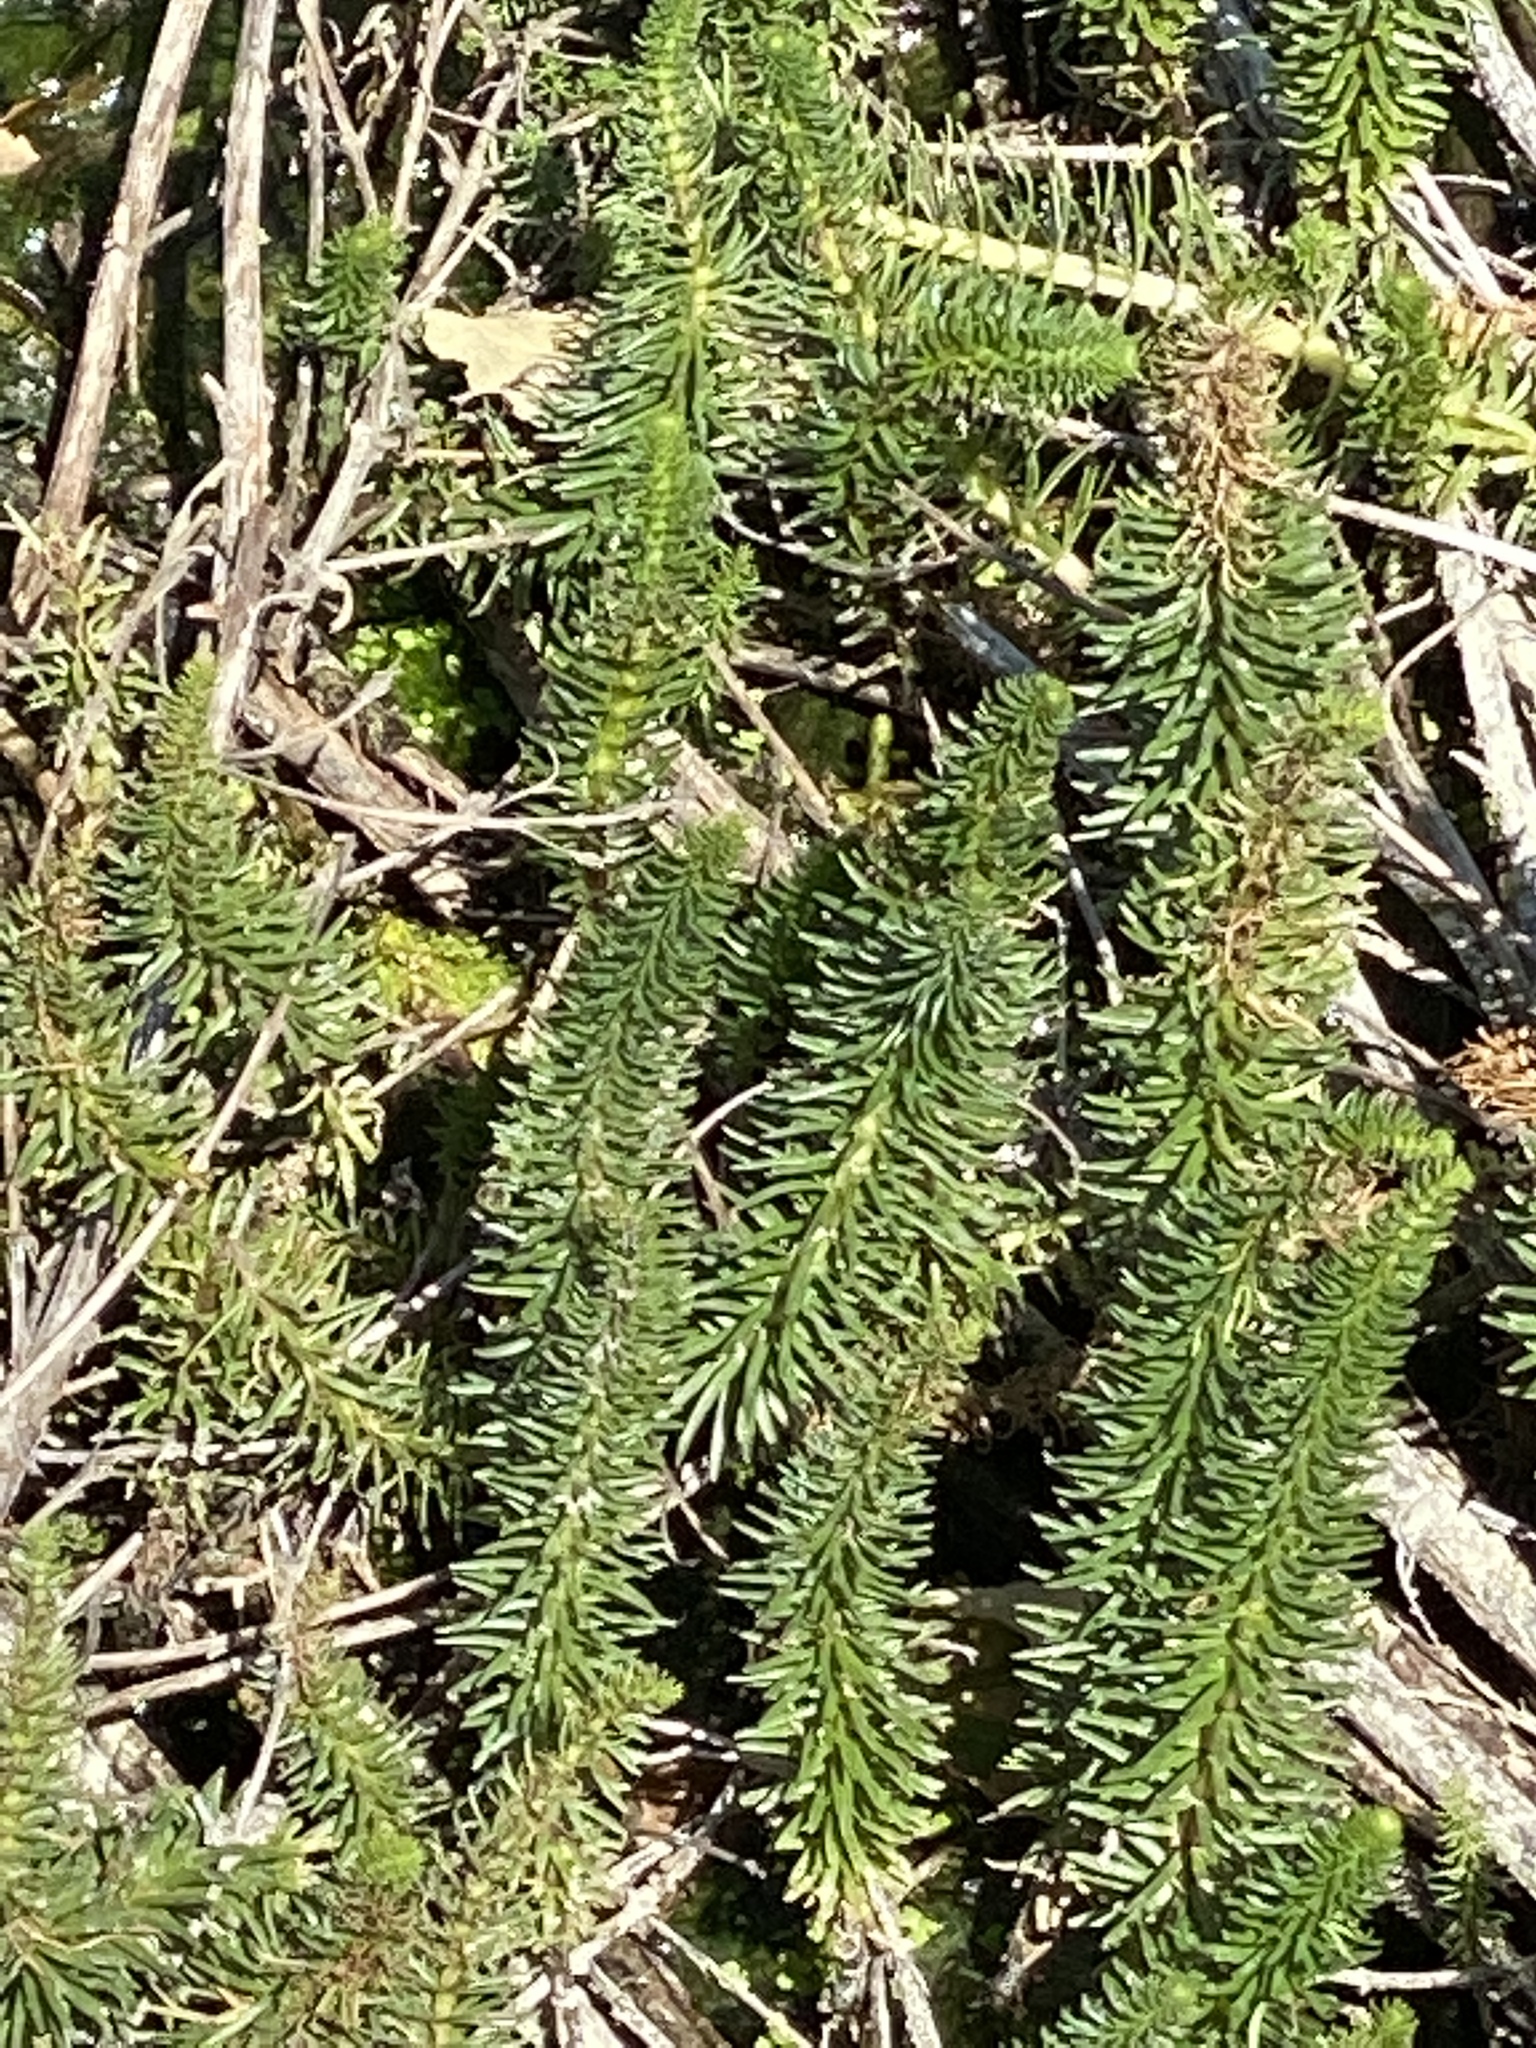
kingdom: Plantae
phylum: Tracheophyta
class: Magnoliopsida
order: Lamiales
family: Plantaginaceae
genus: Hippuris
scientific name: Hippuris vulgaris
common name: Mare's-tail
